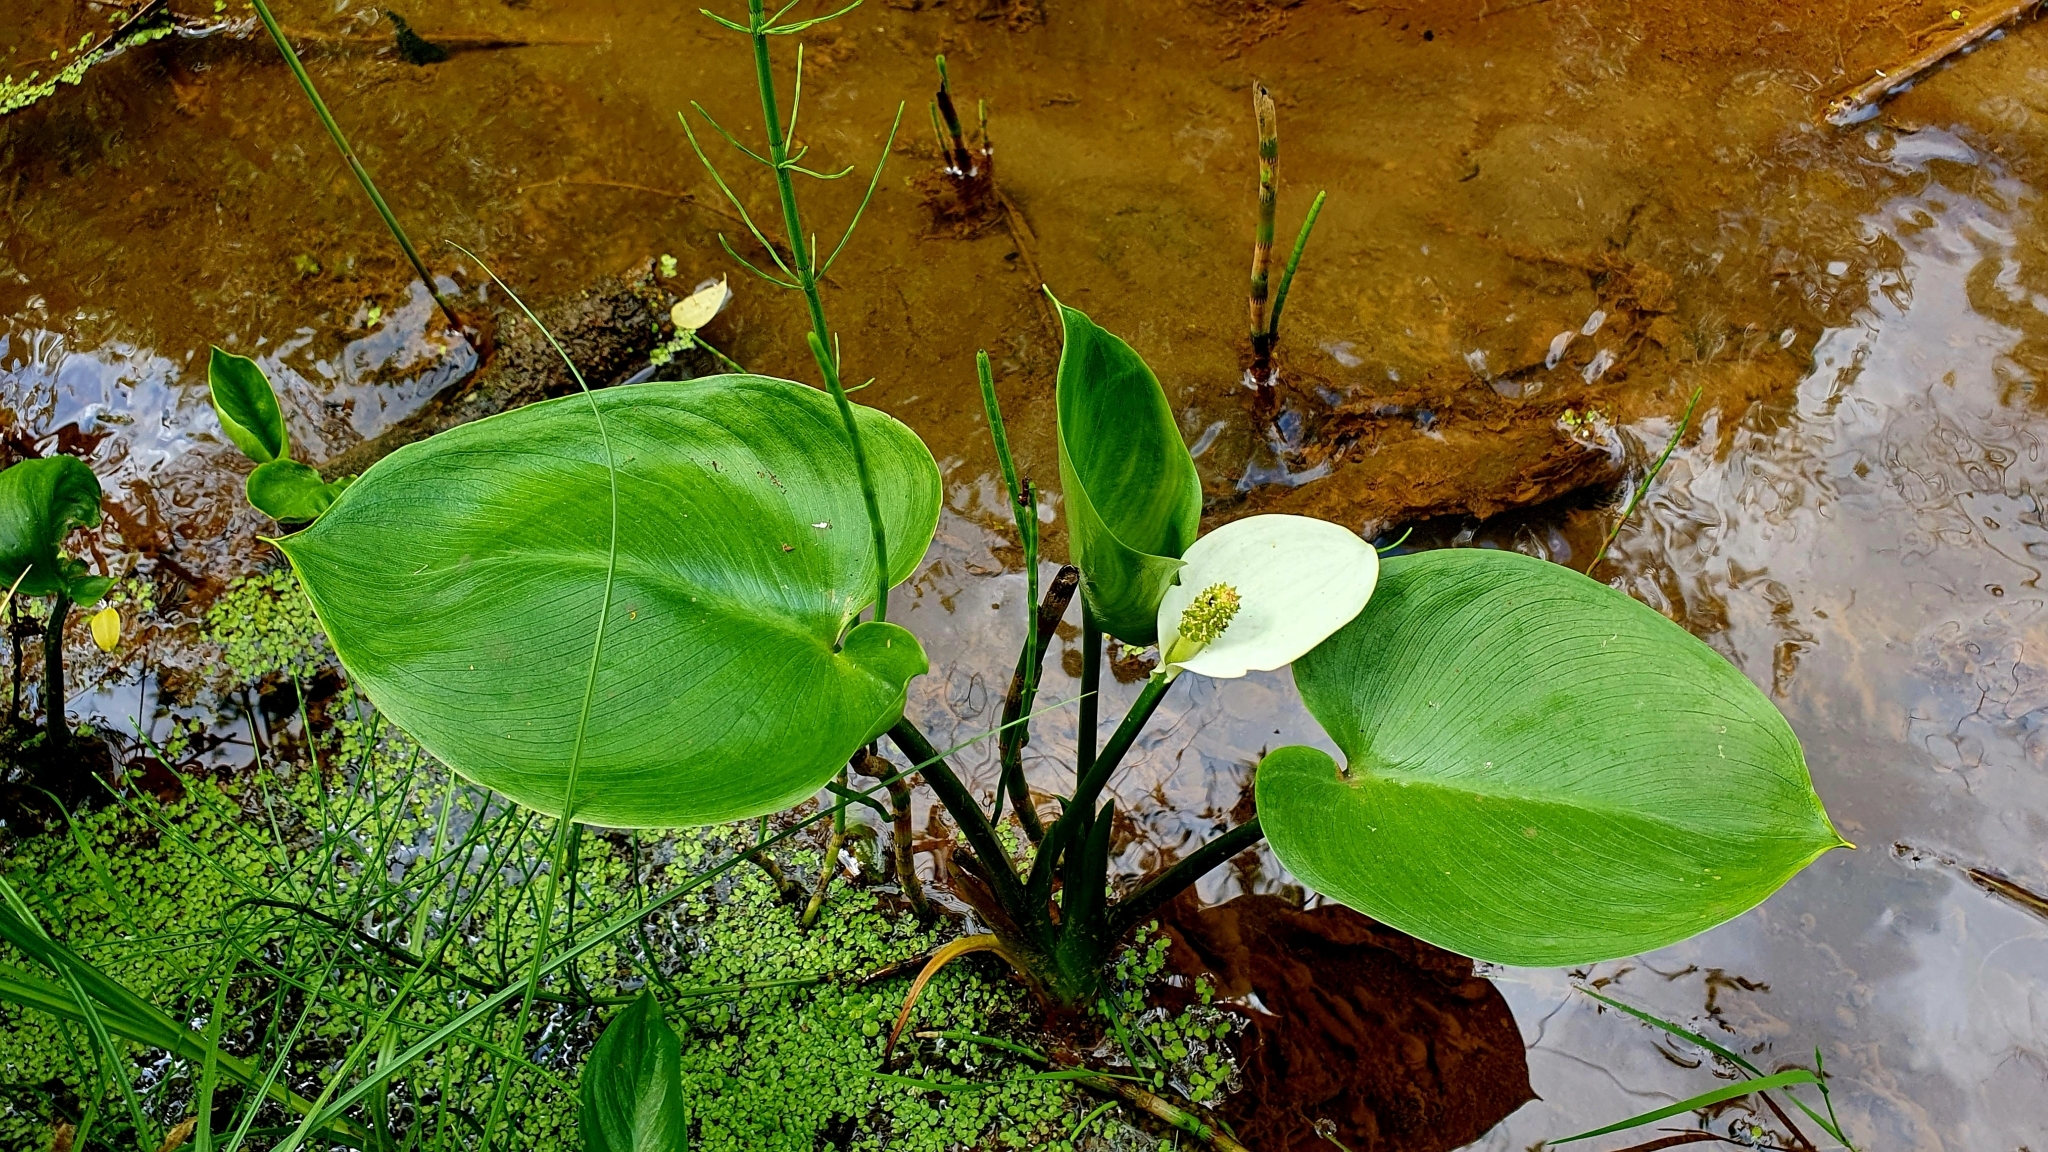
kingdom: Plantae
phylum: Tracheophyta
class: Liliopsida
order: Alismatales
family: Araceae
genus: Calla
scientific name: Calla palustris
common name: Bog arum
